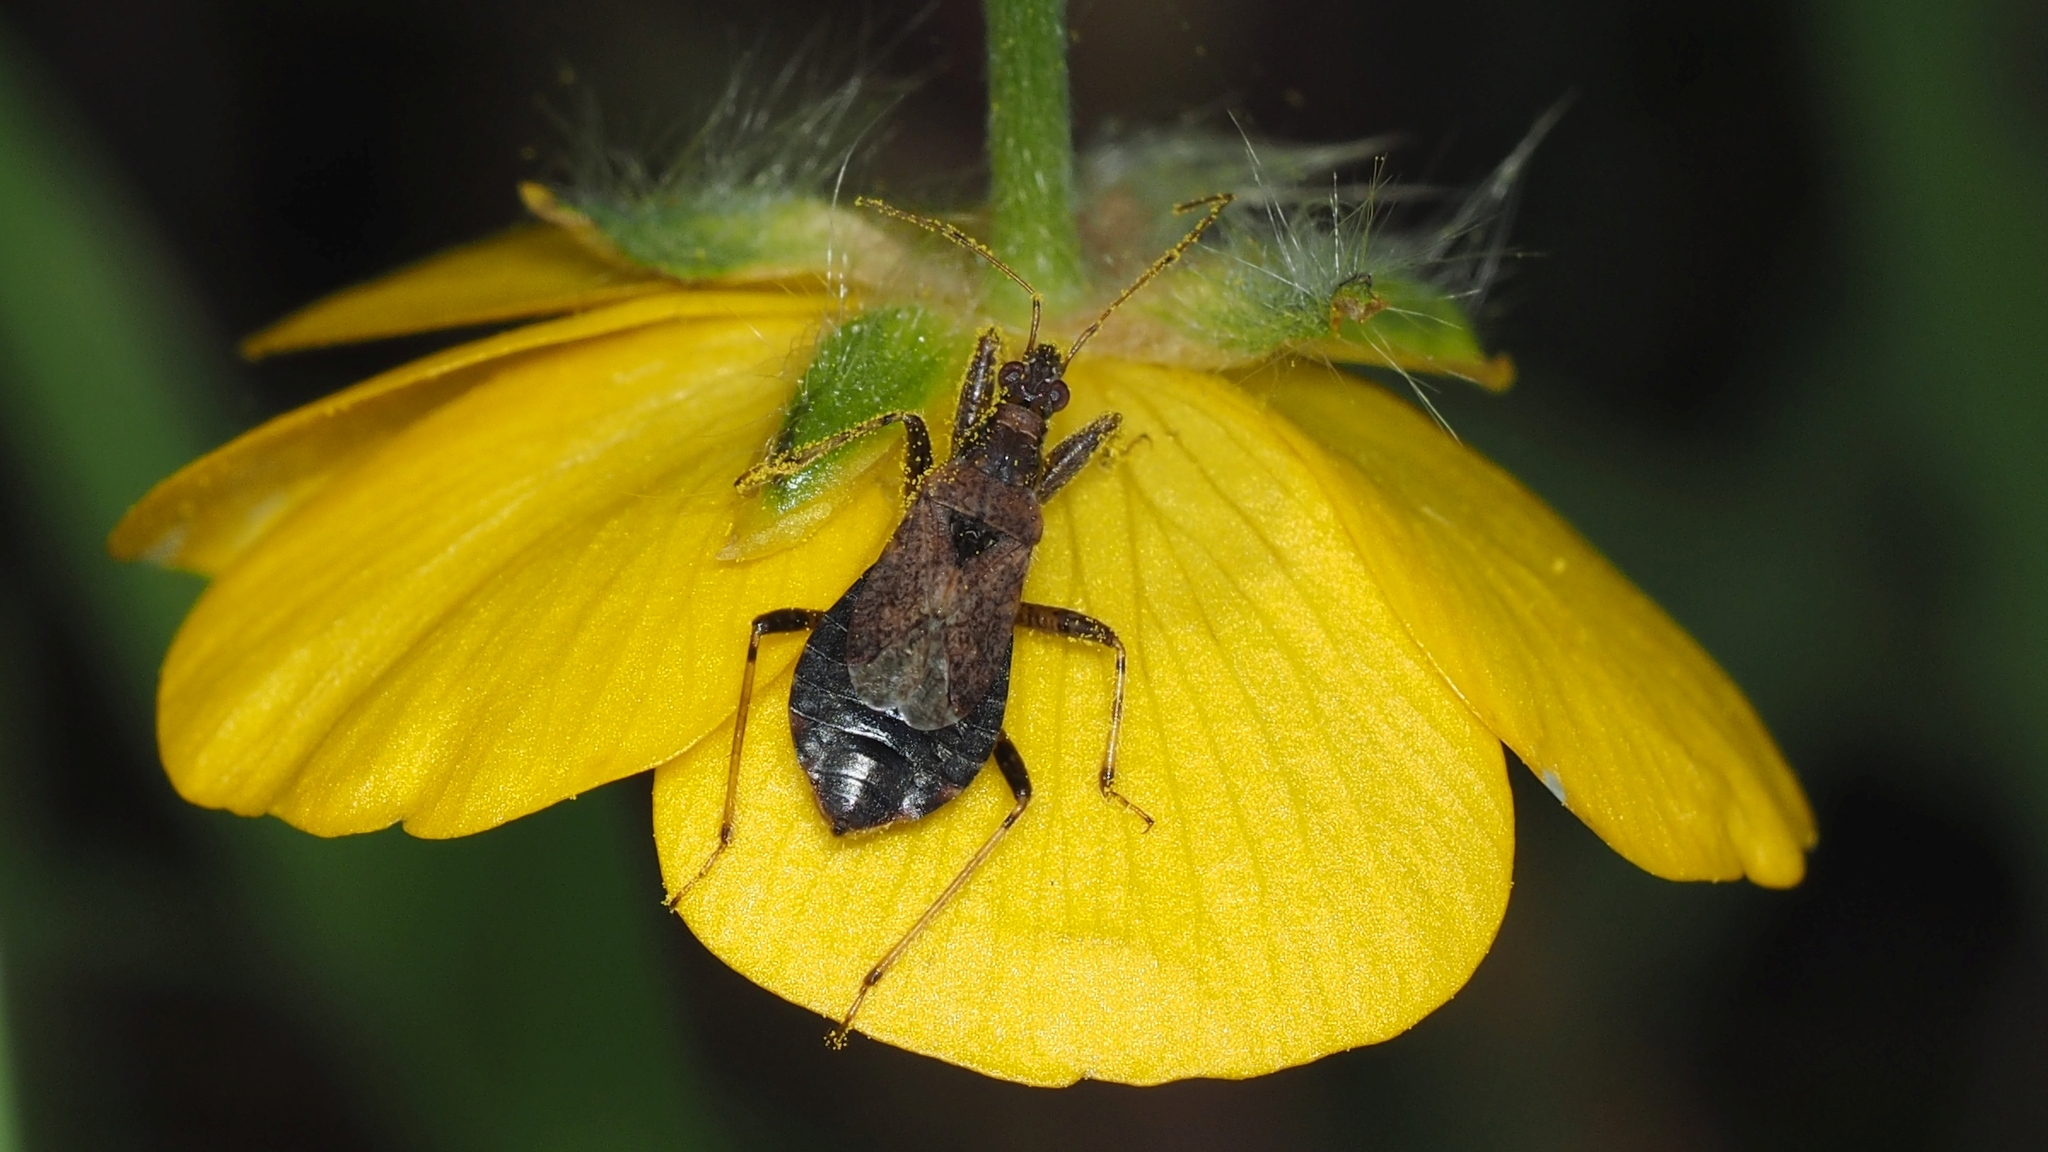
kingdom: Animalia
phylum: Arthropoda
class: Insecta
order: Hemiptera
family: Nabidae
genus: Himacerus
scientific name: Himacerus mirmicoides
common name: Ant damsel bug
